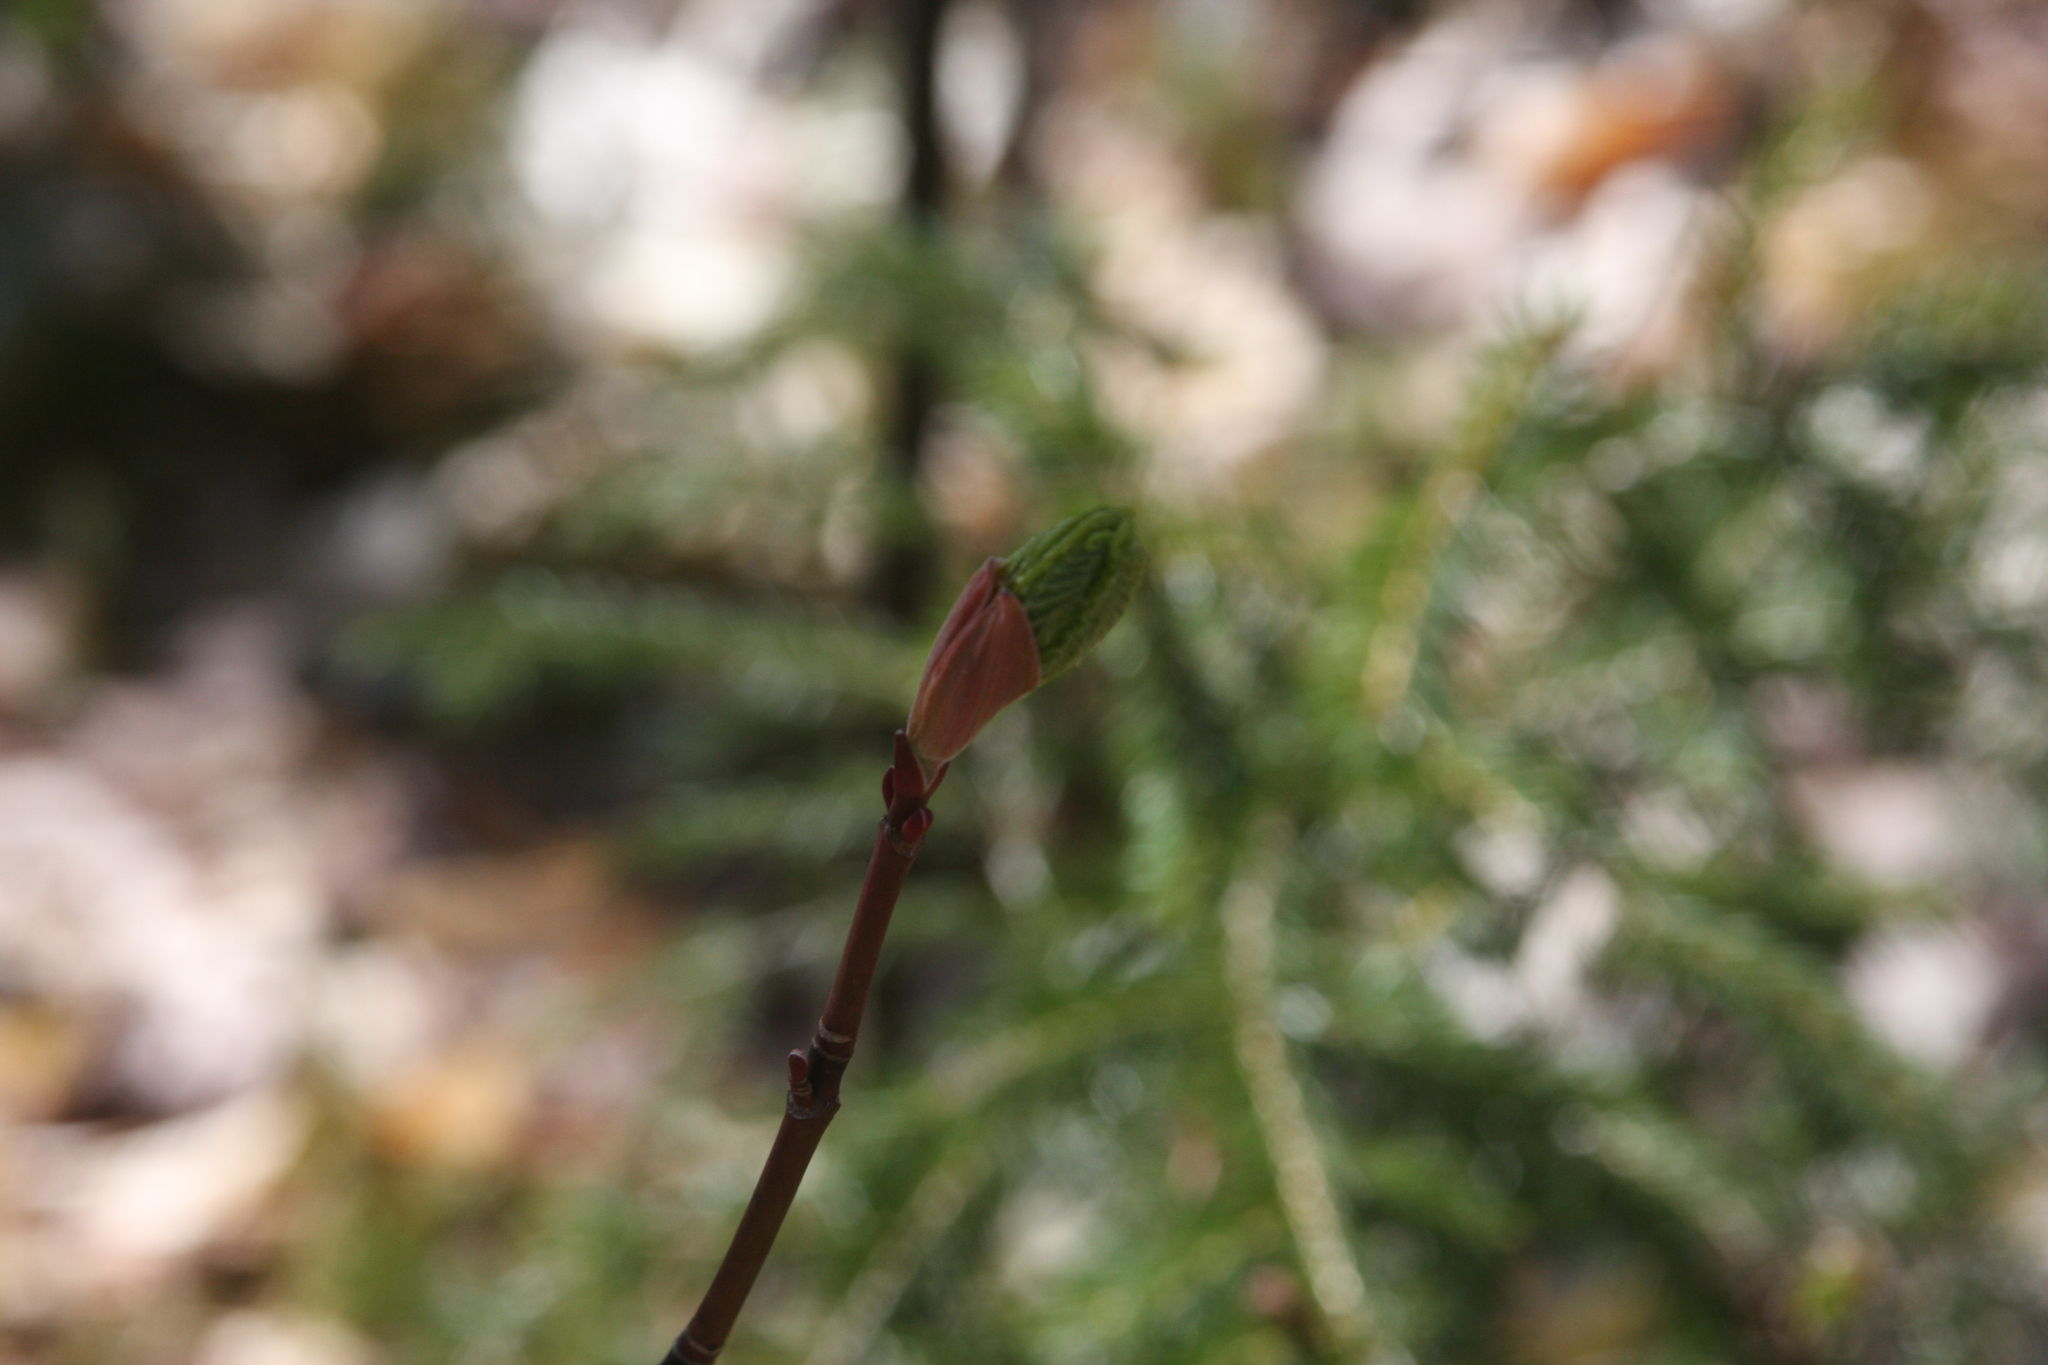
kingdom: Plantae
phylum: Tracheophyta
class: Magnoliopsida
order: Sapindales
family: Sapindaceae
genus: Acer
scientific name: Acer pensylvanicum
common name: Moosewood
